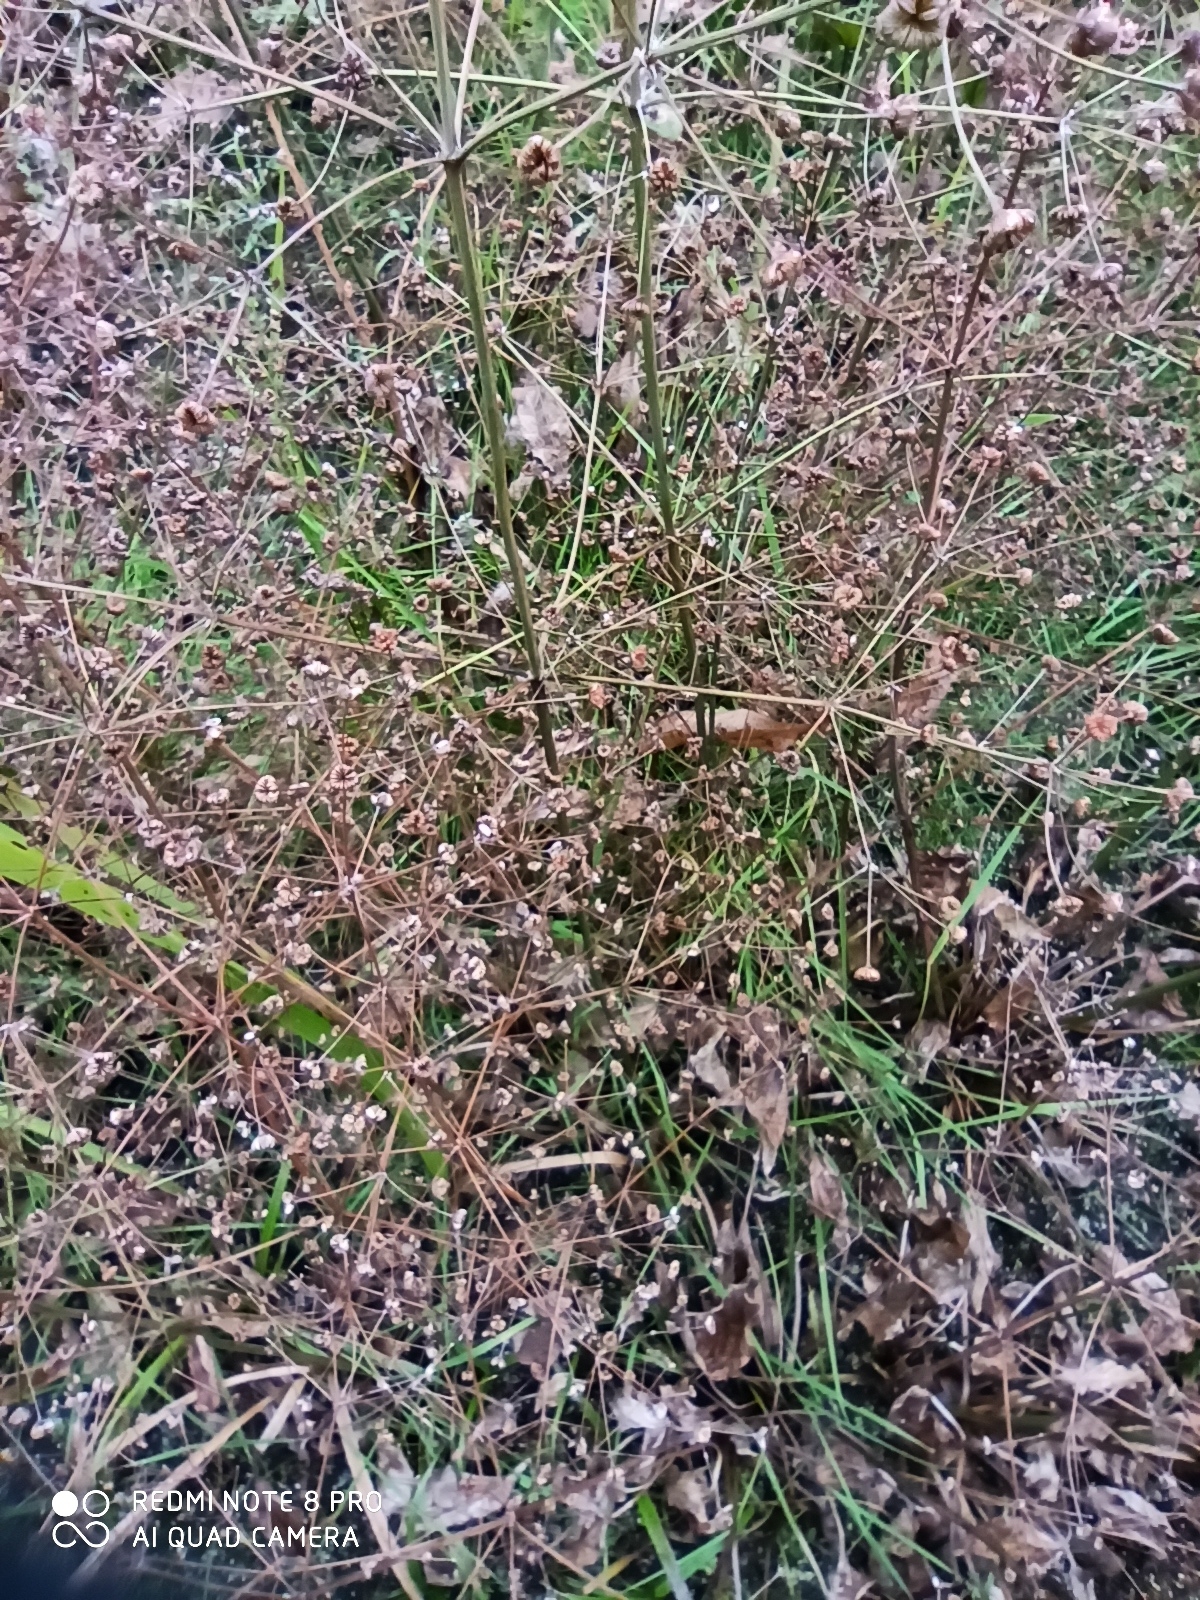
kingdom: Plantae
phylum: Tracheophyta
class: Liliopsida
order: Alismatales
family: Alismataceae
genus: Alisma
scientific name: Alisma plantago-aquatica
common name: Water-plantain
